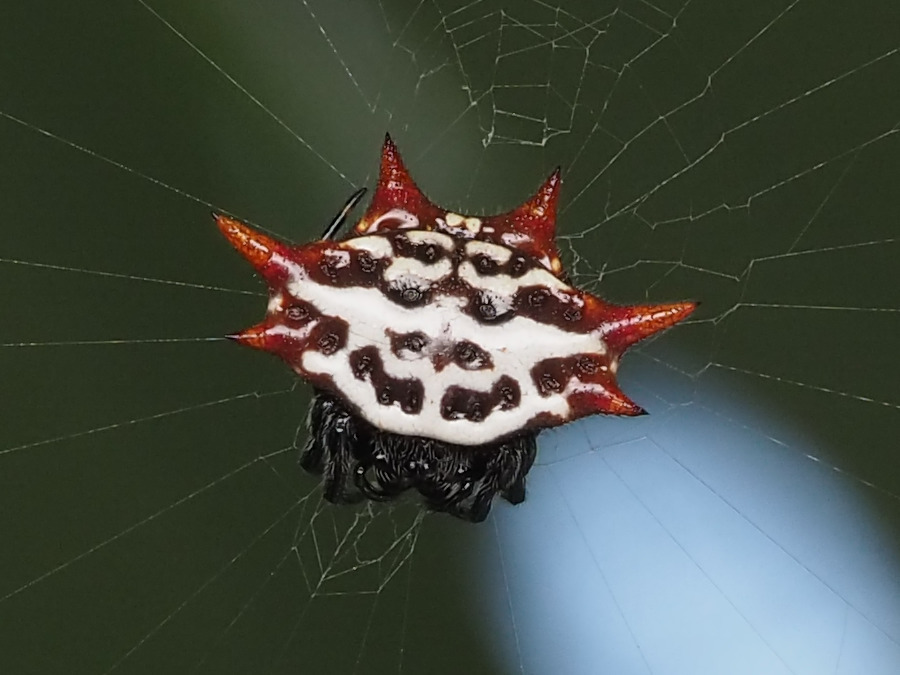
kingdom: Animalia
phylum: Arthropoda
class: Arachnida
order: Araneae
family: Araneidae
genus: Gasteracantha
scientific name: Gasteracantha cancriformis
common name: Orb weavers
